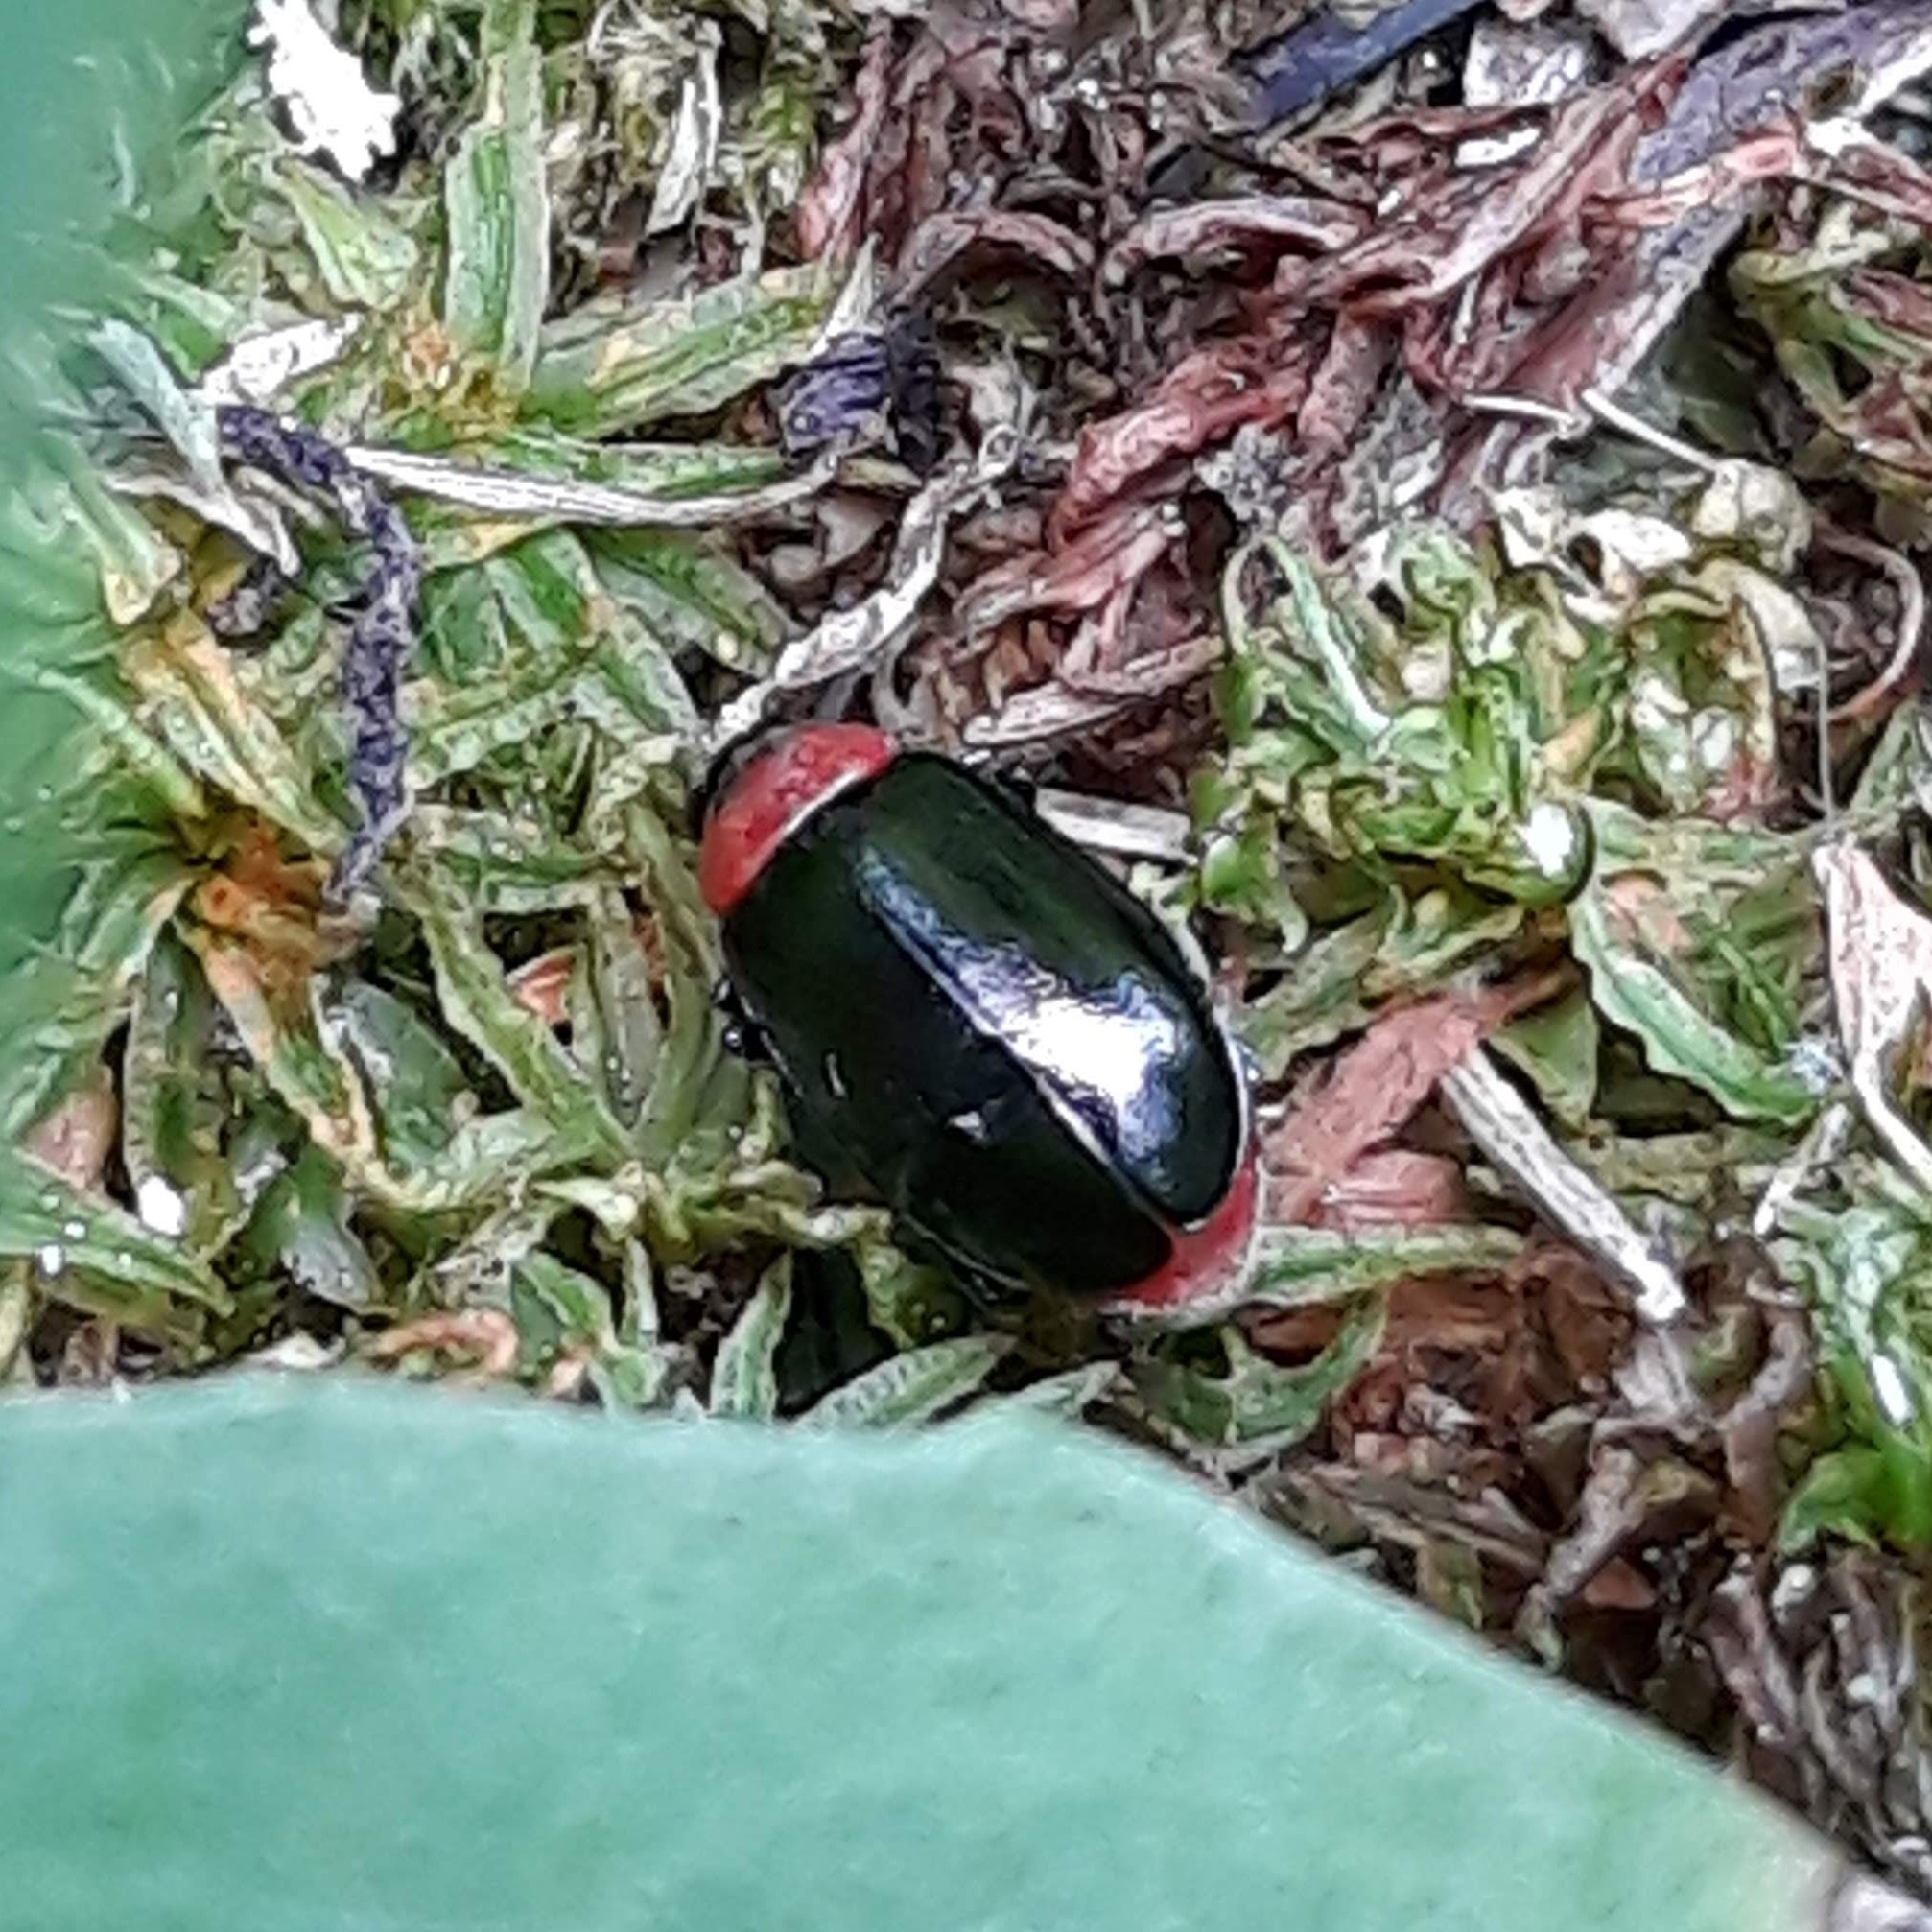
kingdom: Animalia
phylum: Arthropoda
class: Insecta
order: Coleoptera
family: Chrysomelidae
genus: Disonycha
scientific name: Disonycha xanthomelas
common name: Spinach flea beetle
